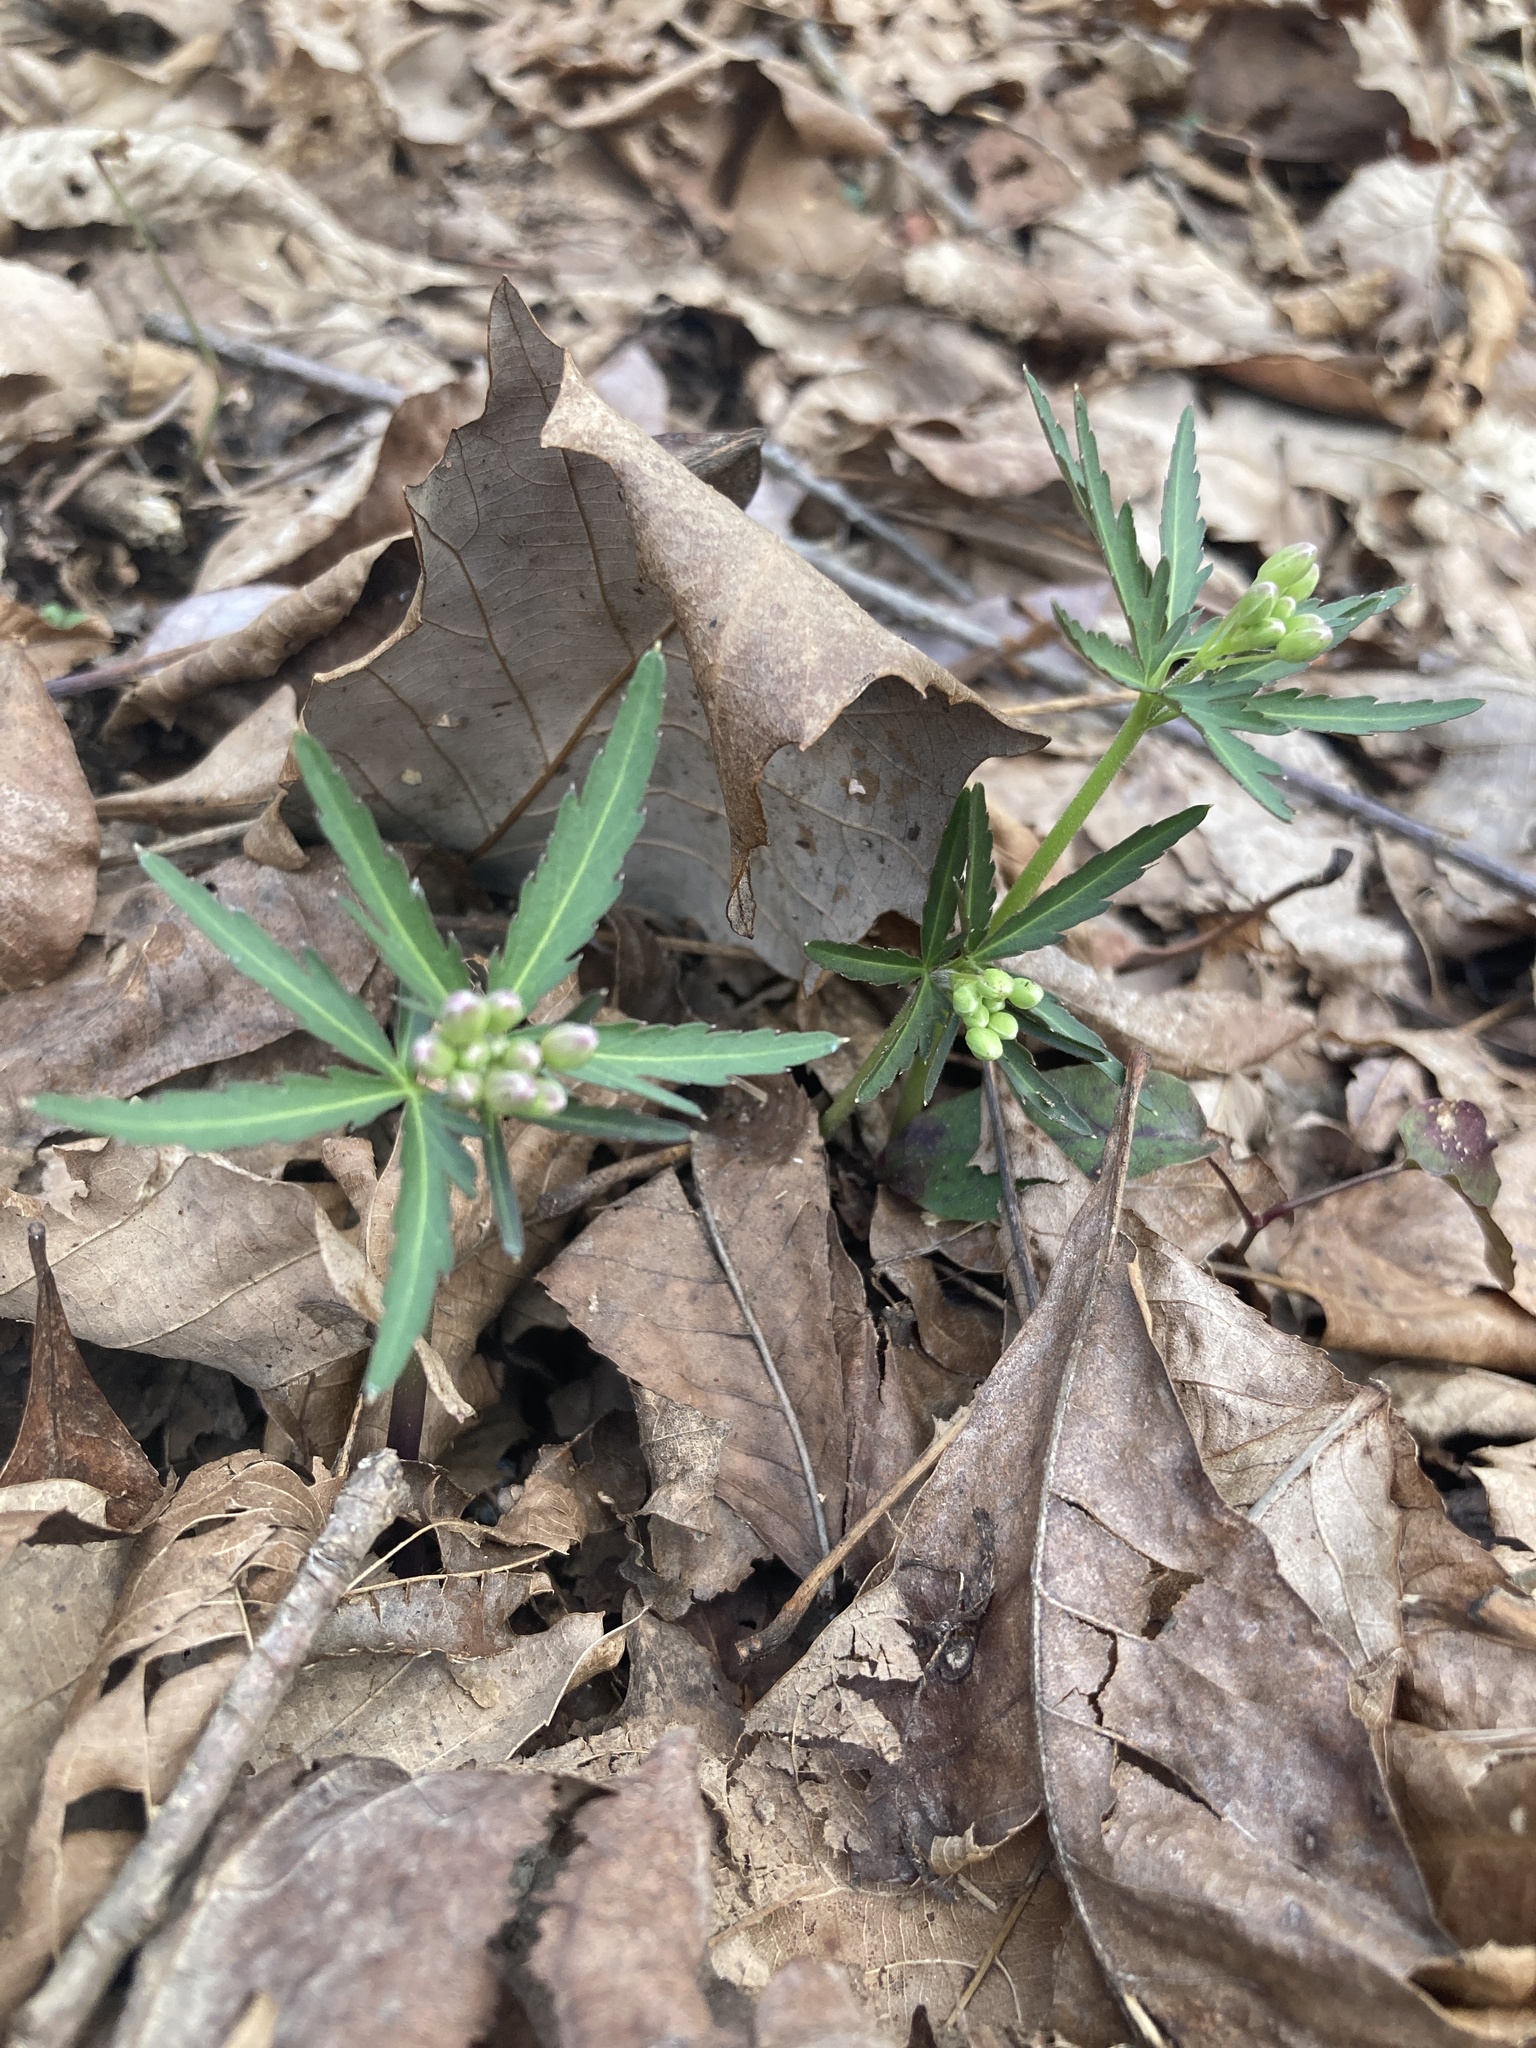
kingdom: Plantae
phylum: Tracheophyta
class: Magnoliopsida
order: Brassicales
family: Brassicaceae
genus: Cardamine
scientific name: Cardamine concatenata
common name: Cut-leaf toothcup
